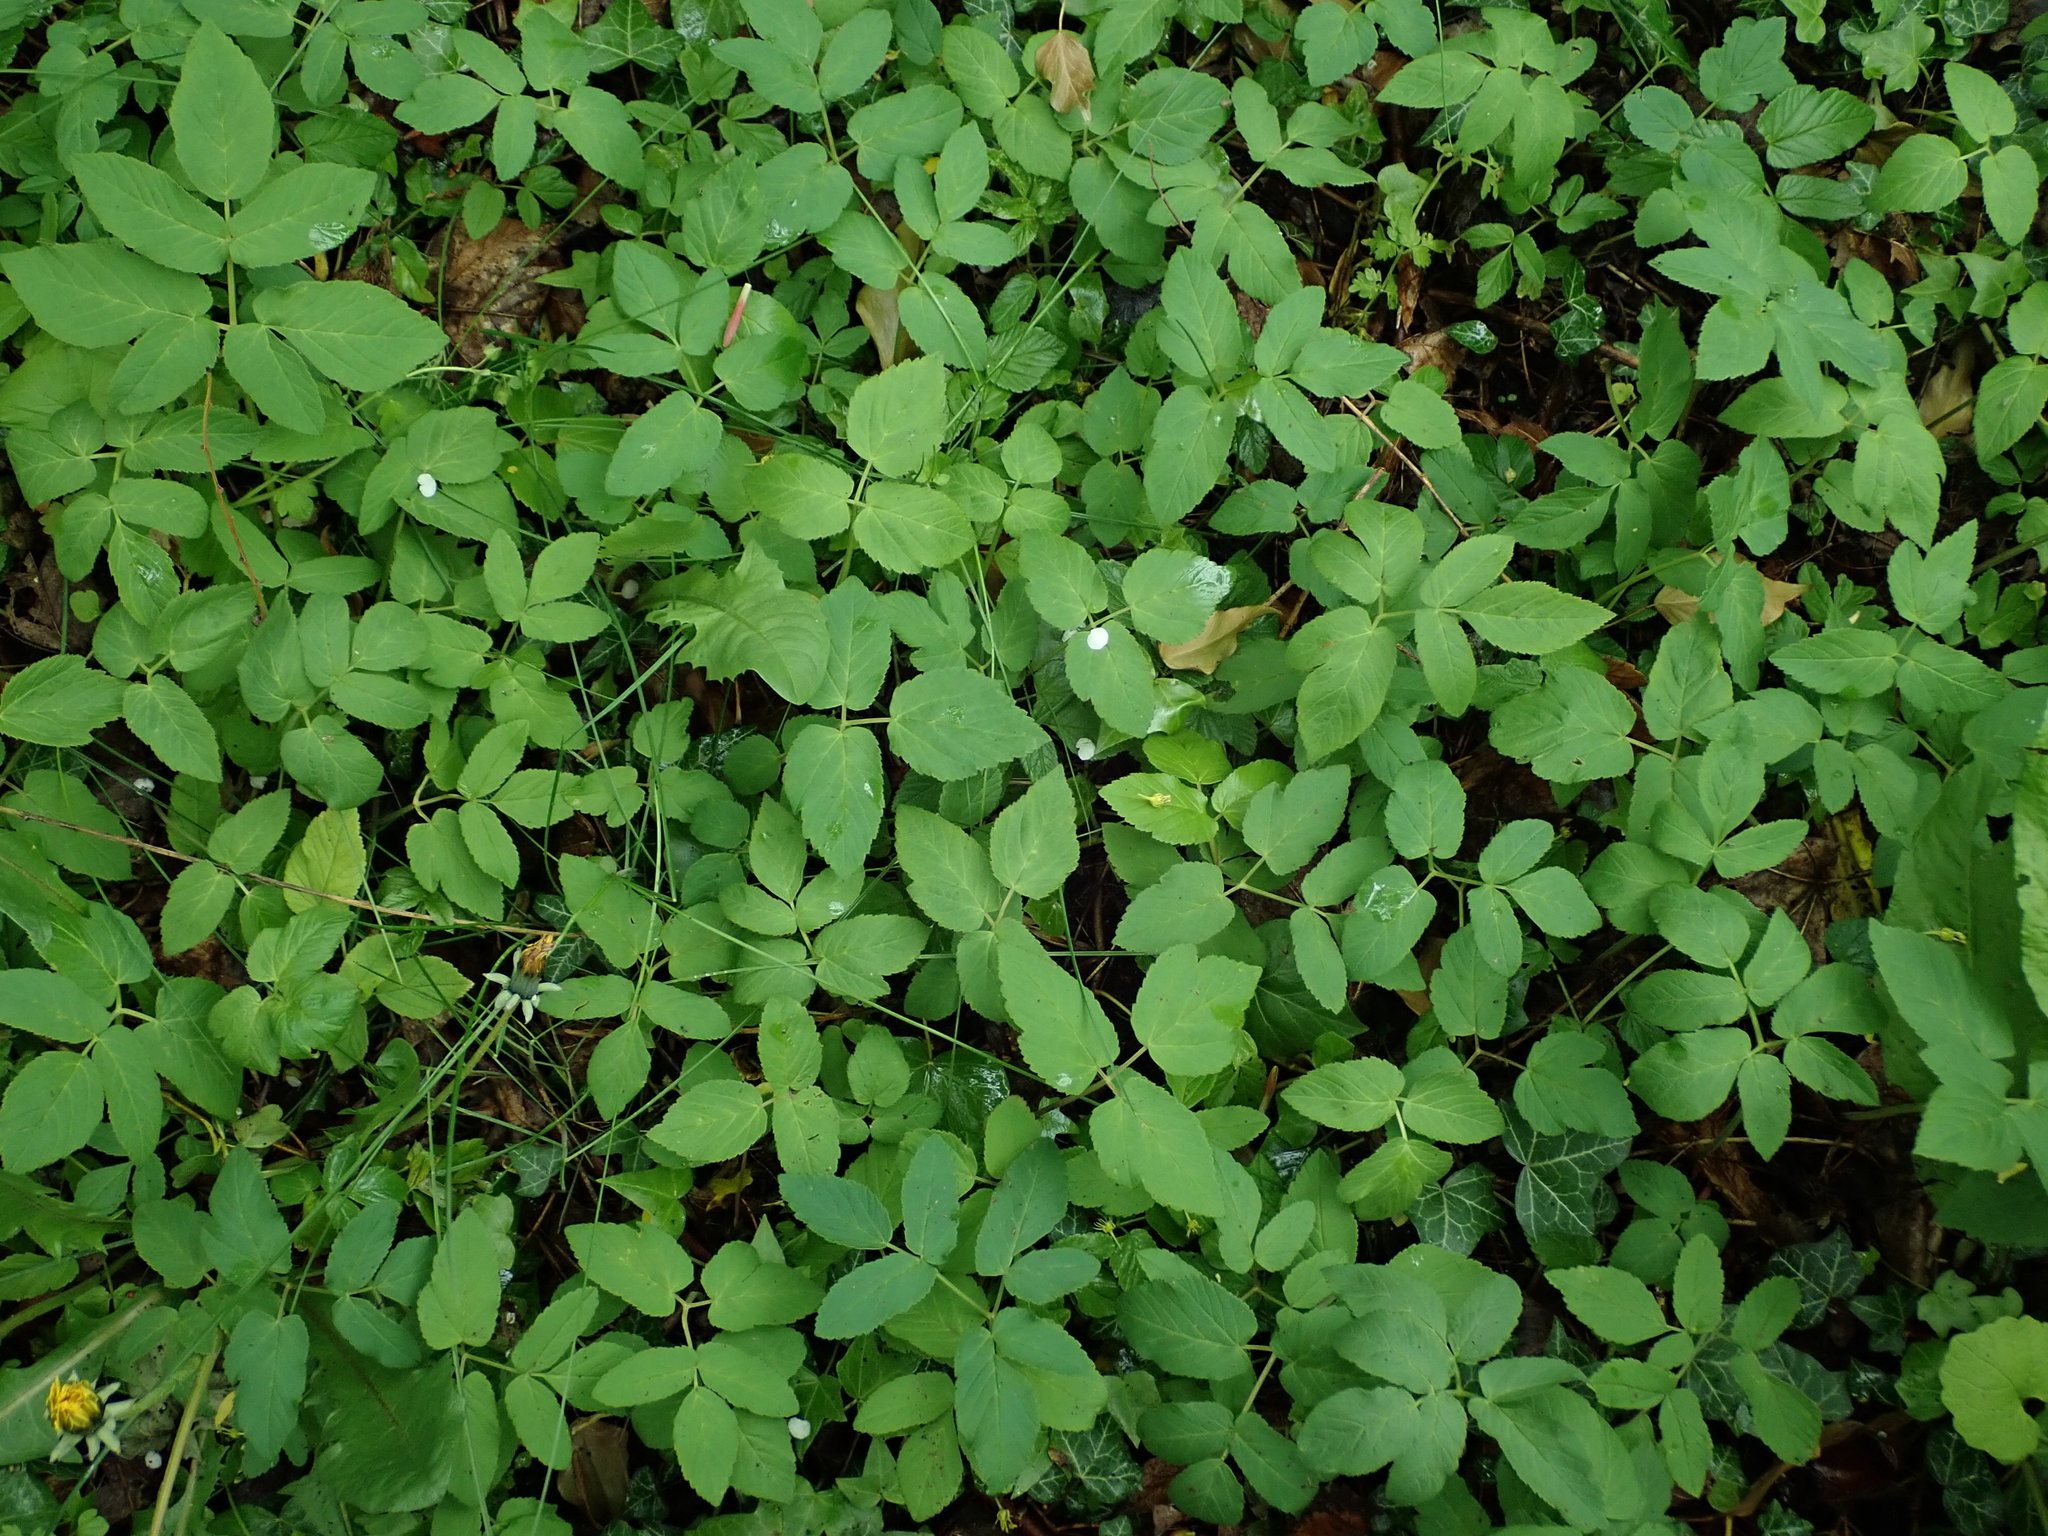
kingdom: Plantae
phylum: Tracheophyta
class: Magnoliopsida
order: Apiales
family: Apiaceae
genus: Aegopodium
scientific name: Aegopodium podagraria
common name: Ground-elder
